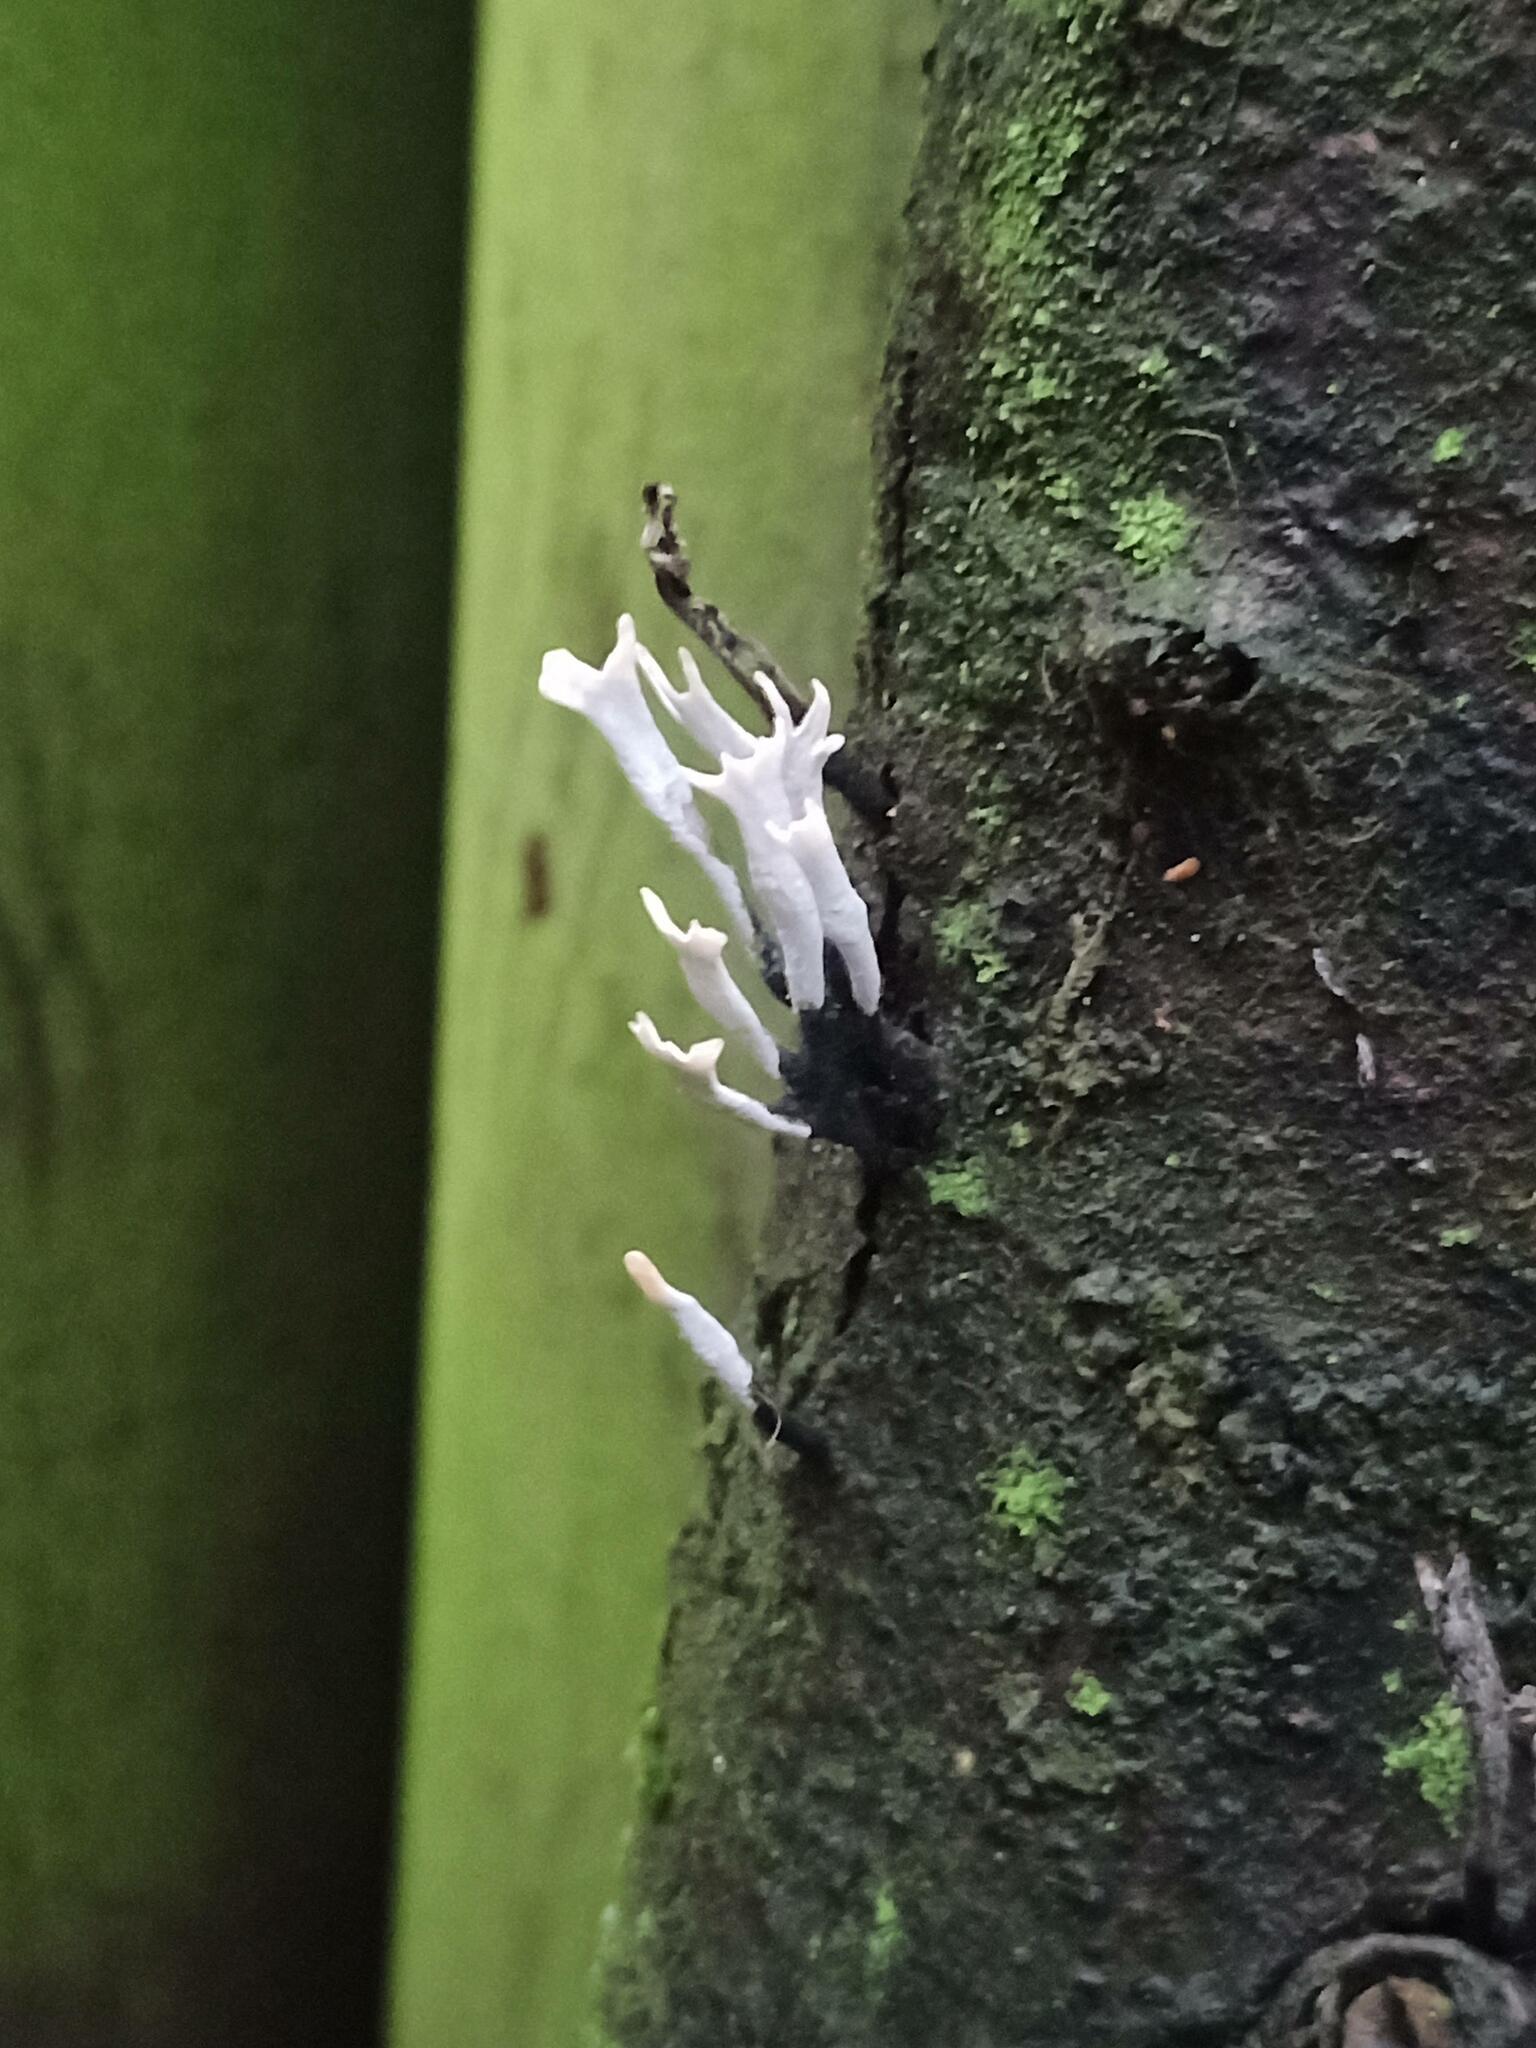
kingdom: Fungi
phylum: Ascomycota
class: Sordariomycetes
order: Xylariales
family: Xylariaceae
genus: Xylaria
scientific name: Xylaria hypoxylon
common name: Candle-snuff fungus
